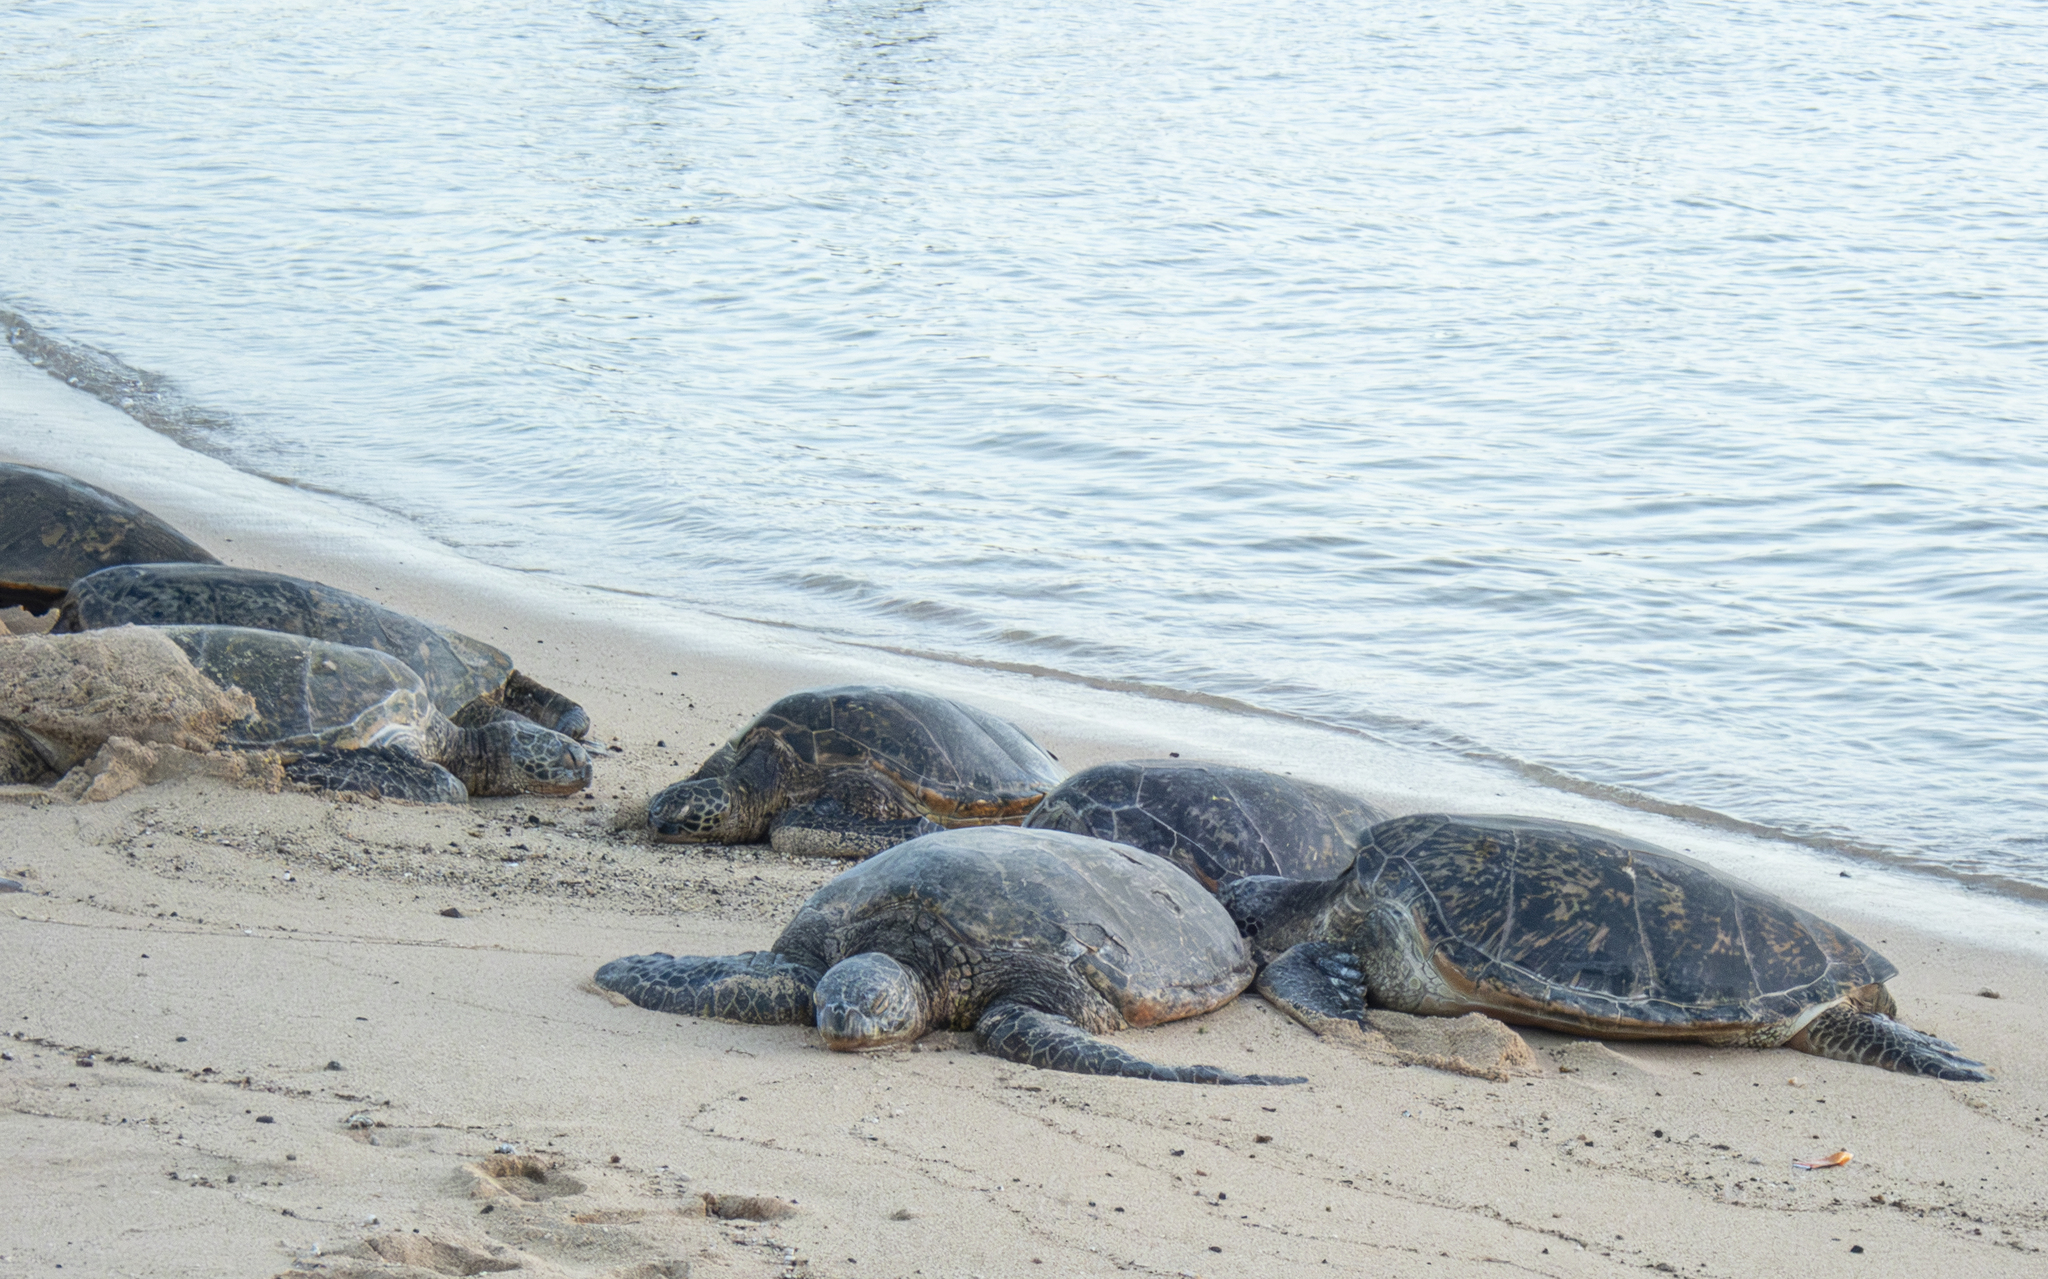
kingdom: Animalia
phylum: Chordata
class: Testudines
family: Cheloniidae
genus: Chelonia
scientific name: Chelonia mydas
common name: Green turtle
